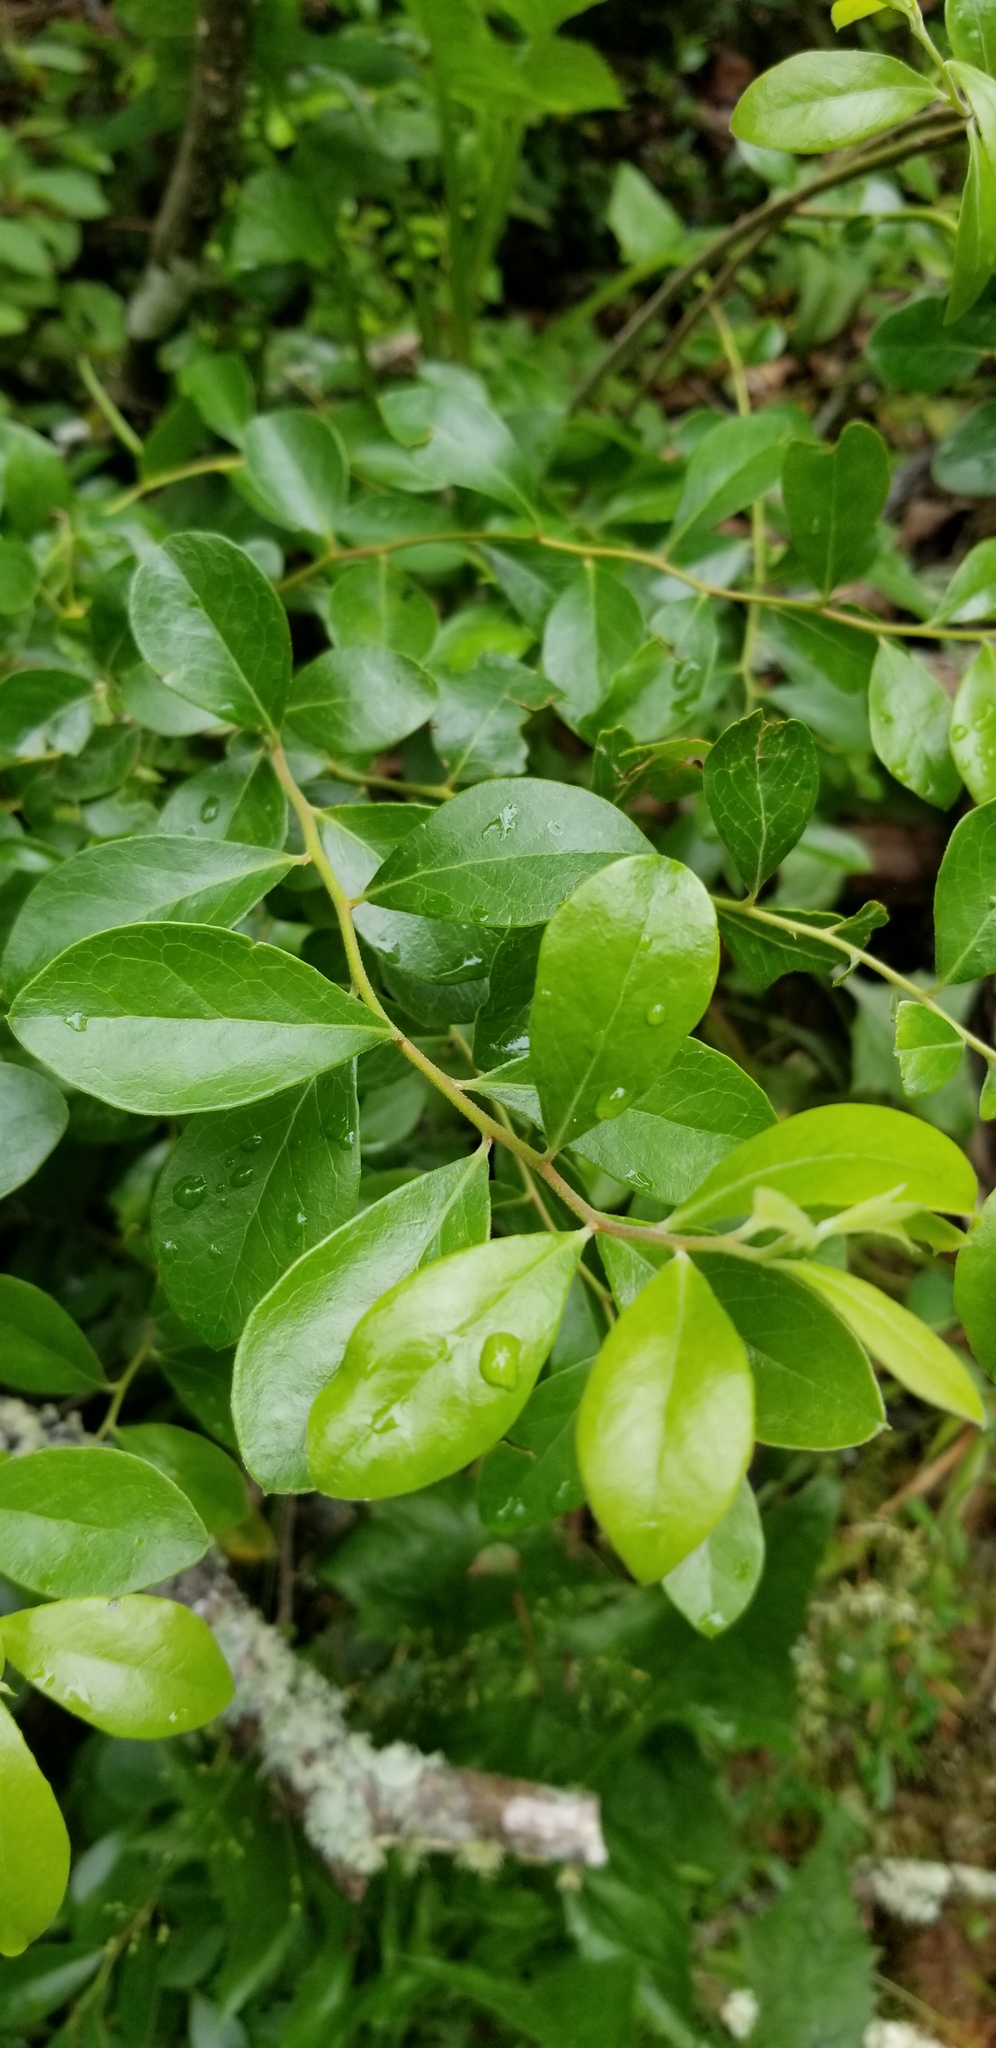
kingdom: Plantae
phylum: Tracheophyta
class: Magnoliopsida
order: Ericales
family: Ericaceae
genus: Vaccinium
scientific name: Vaccinium arboreum
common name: Farkleberry
